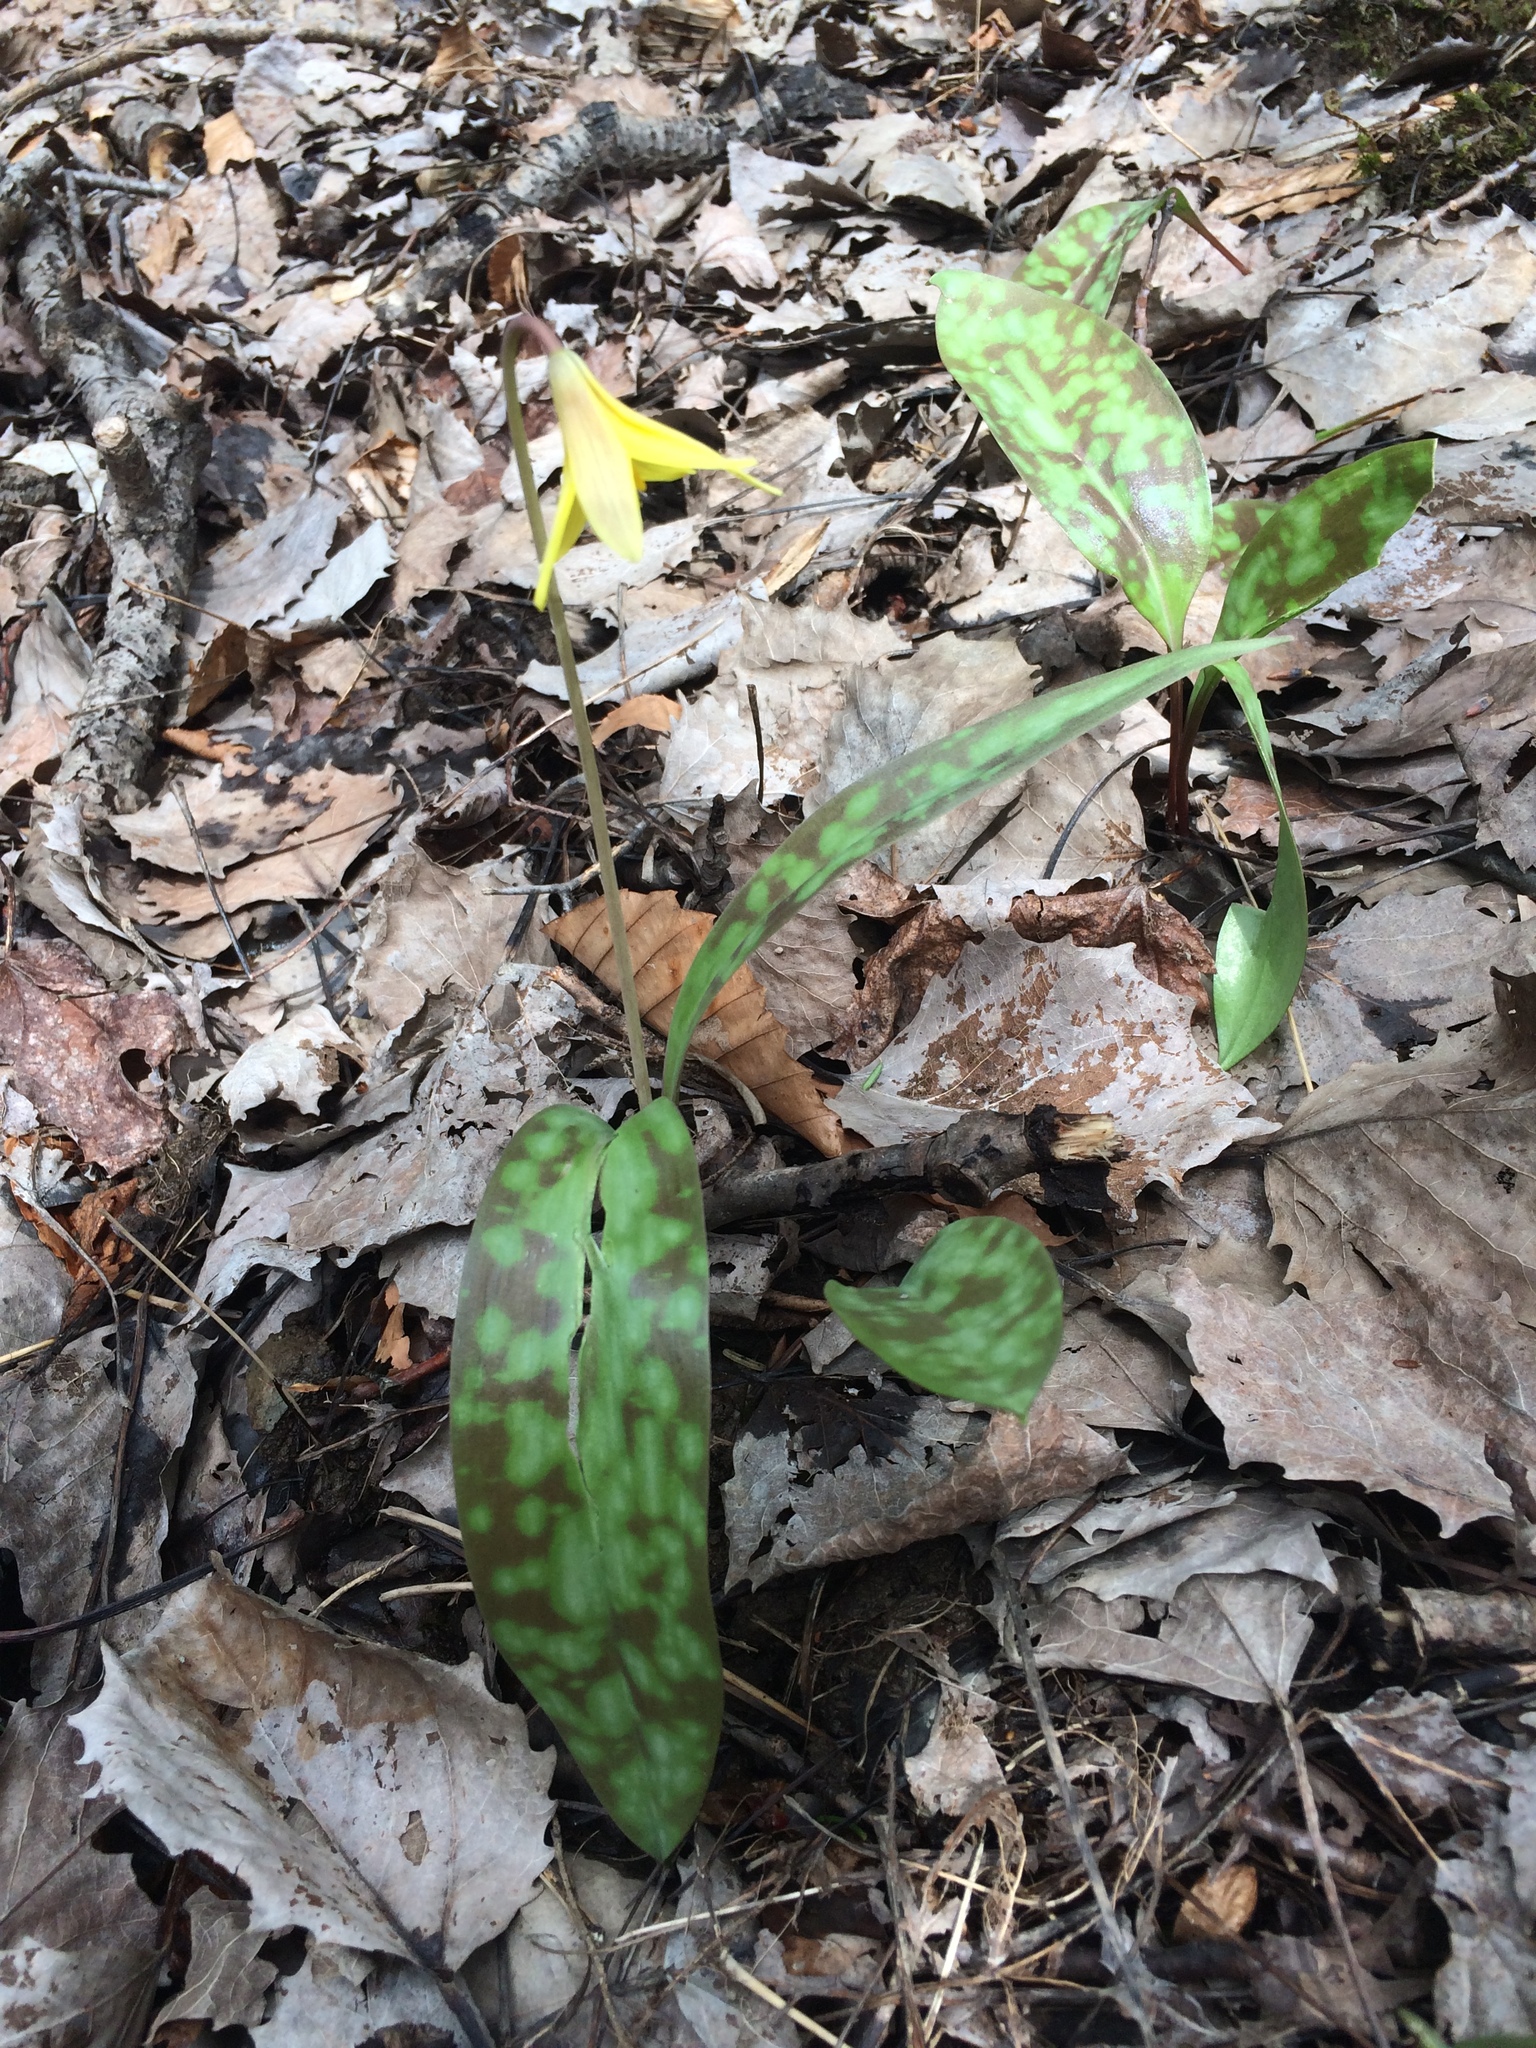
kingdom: Plantae
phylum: Tracheophyta
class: Liliopsida
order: Liliales
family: Liliaceae
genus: Erythronium
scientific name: Erythronium americanum
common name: Yellow adder's-tongue
